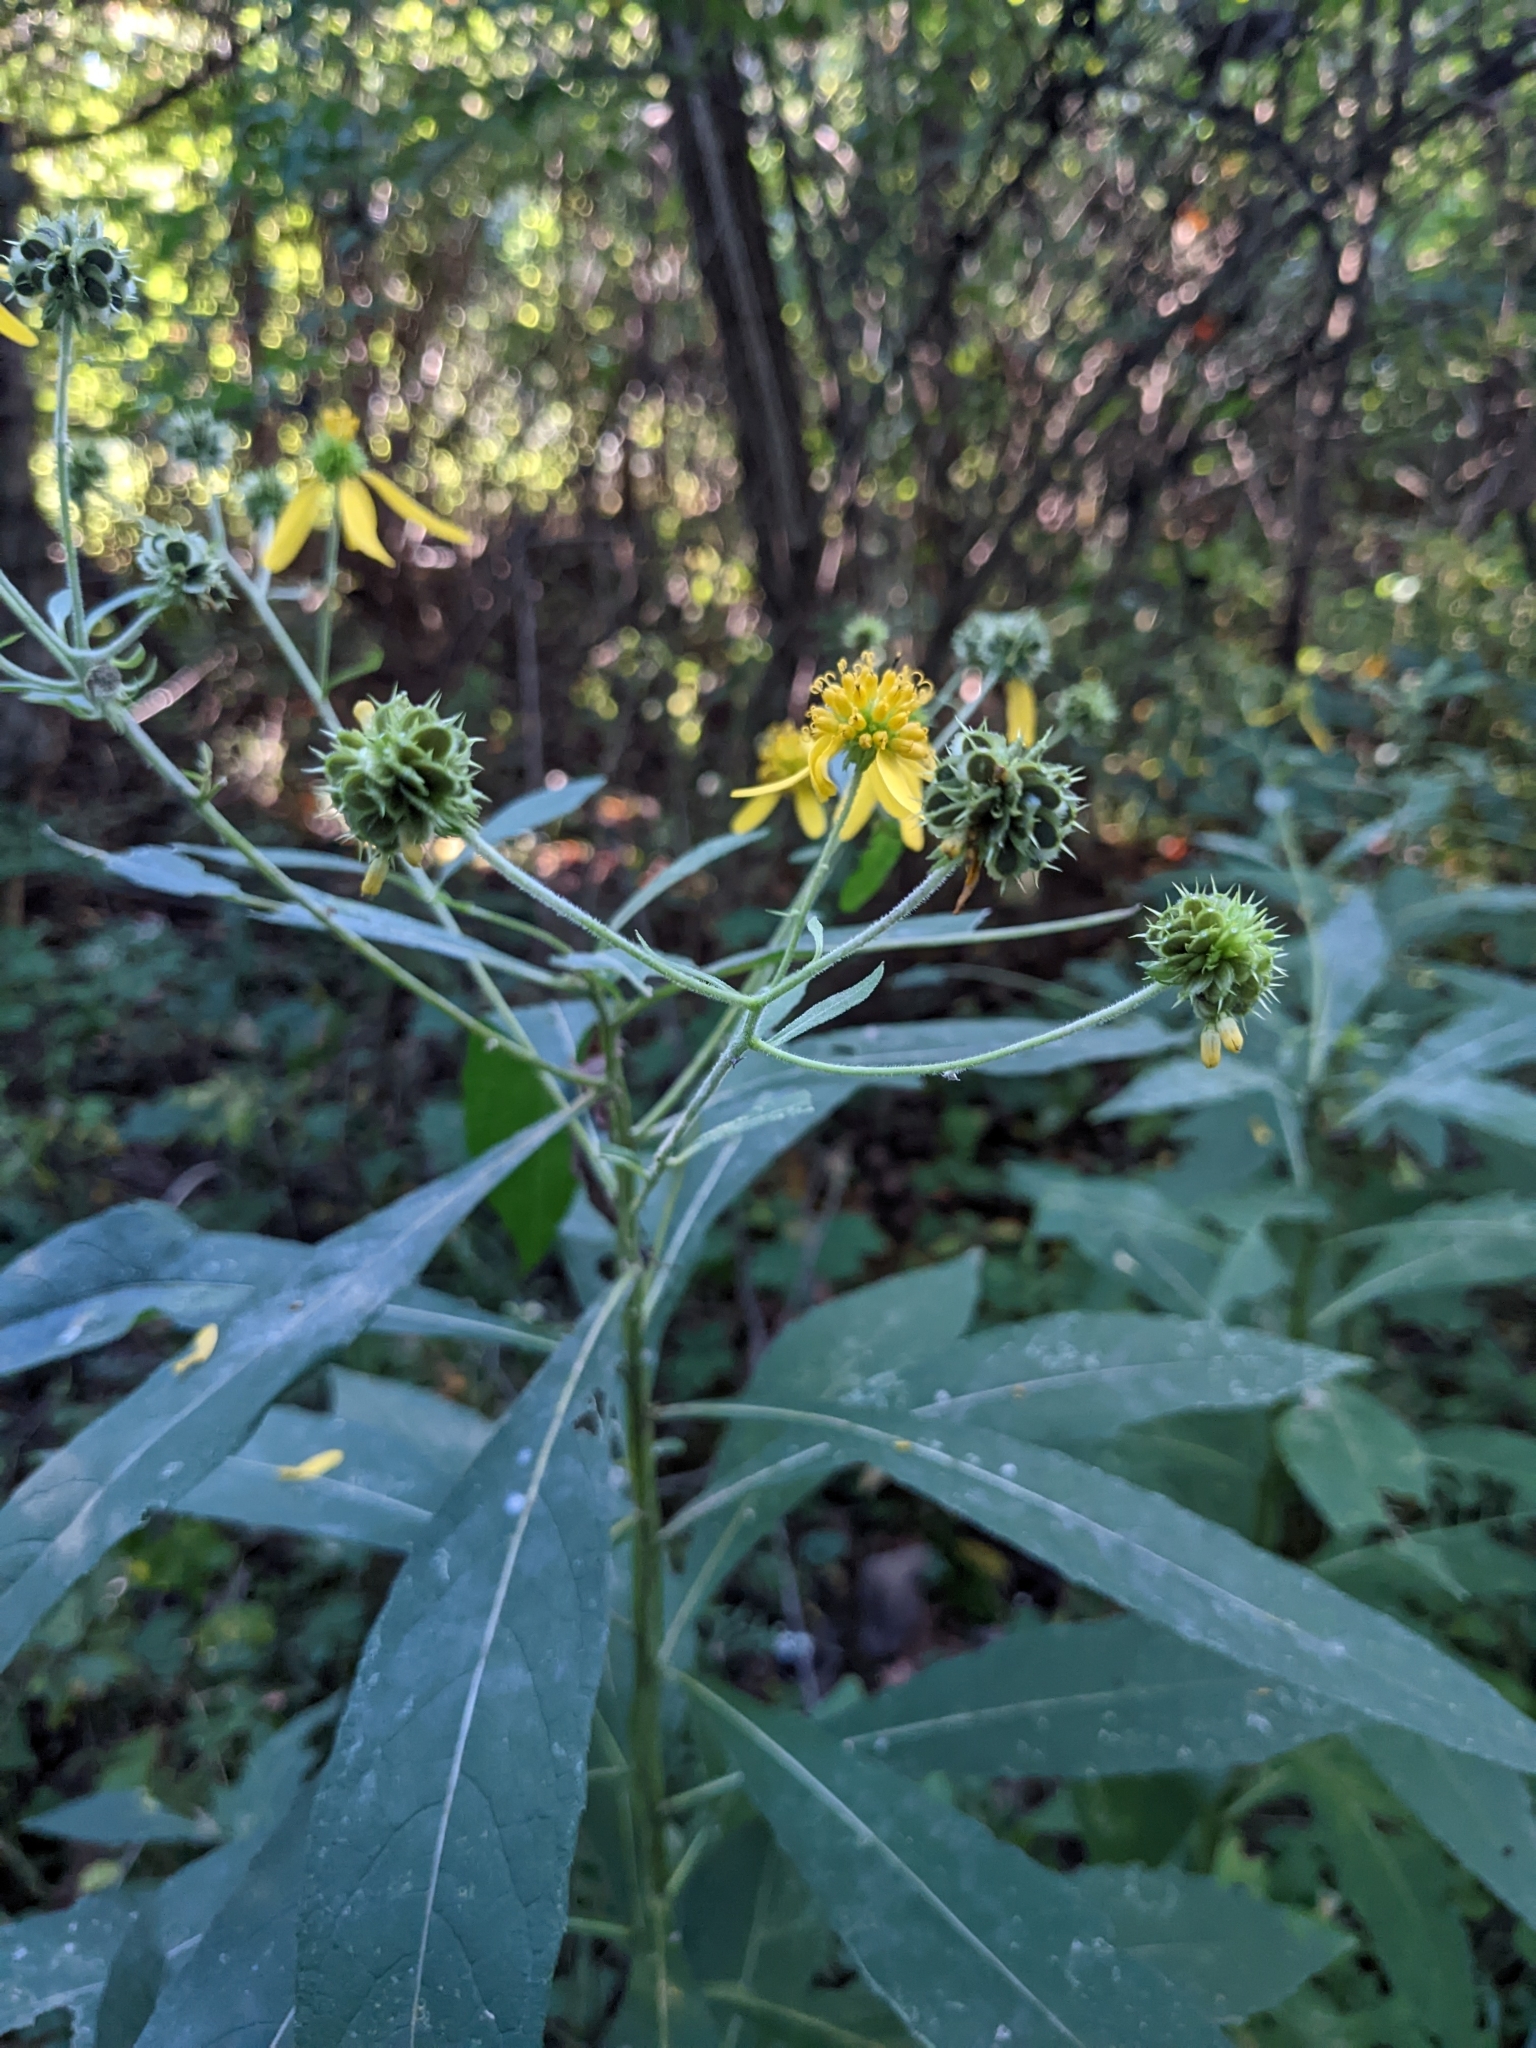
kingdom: Plantae
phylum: Tracheophyta
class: Magnoliopsida
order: Asterales
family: Asteraceae
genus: Verbesina
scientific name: Verbesina alternifolia
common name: Wingstem
